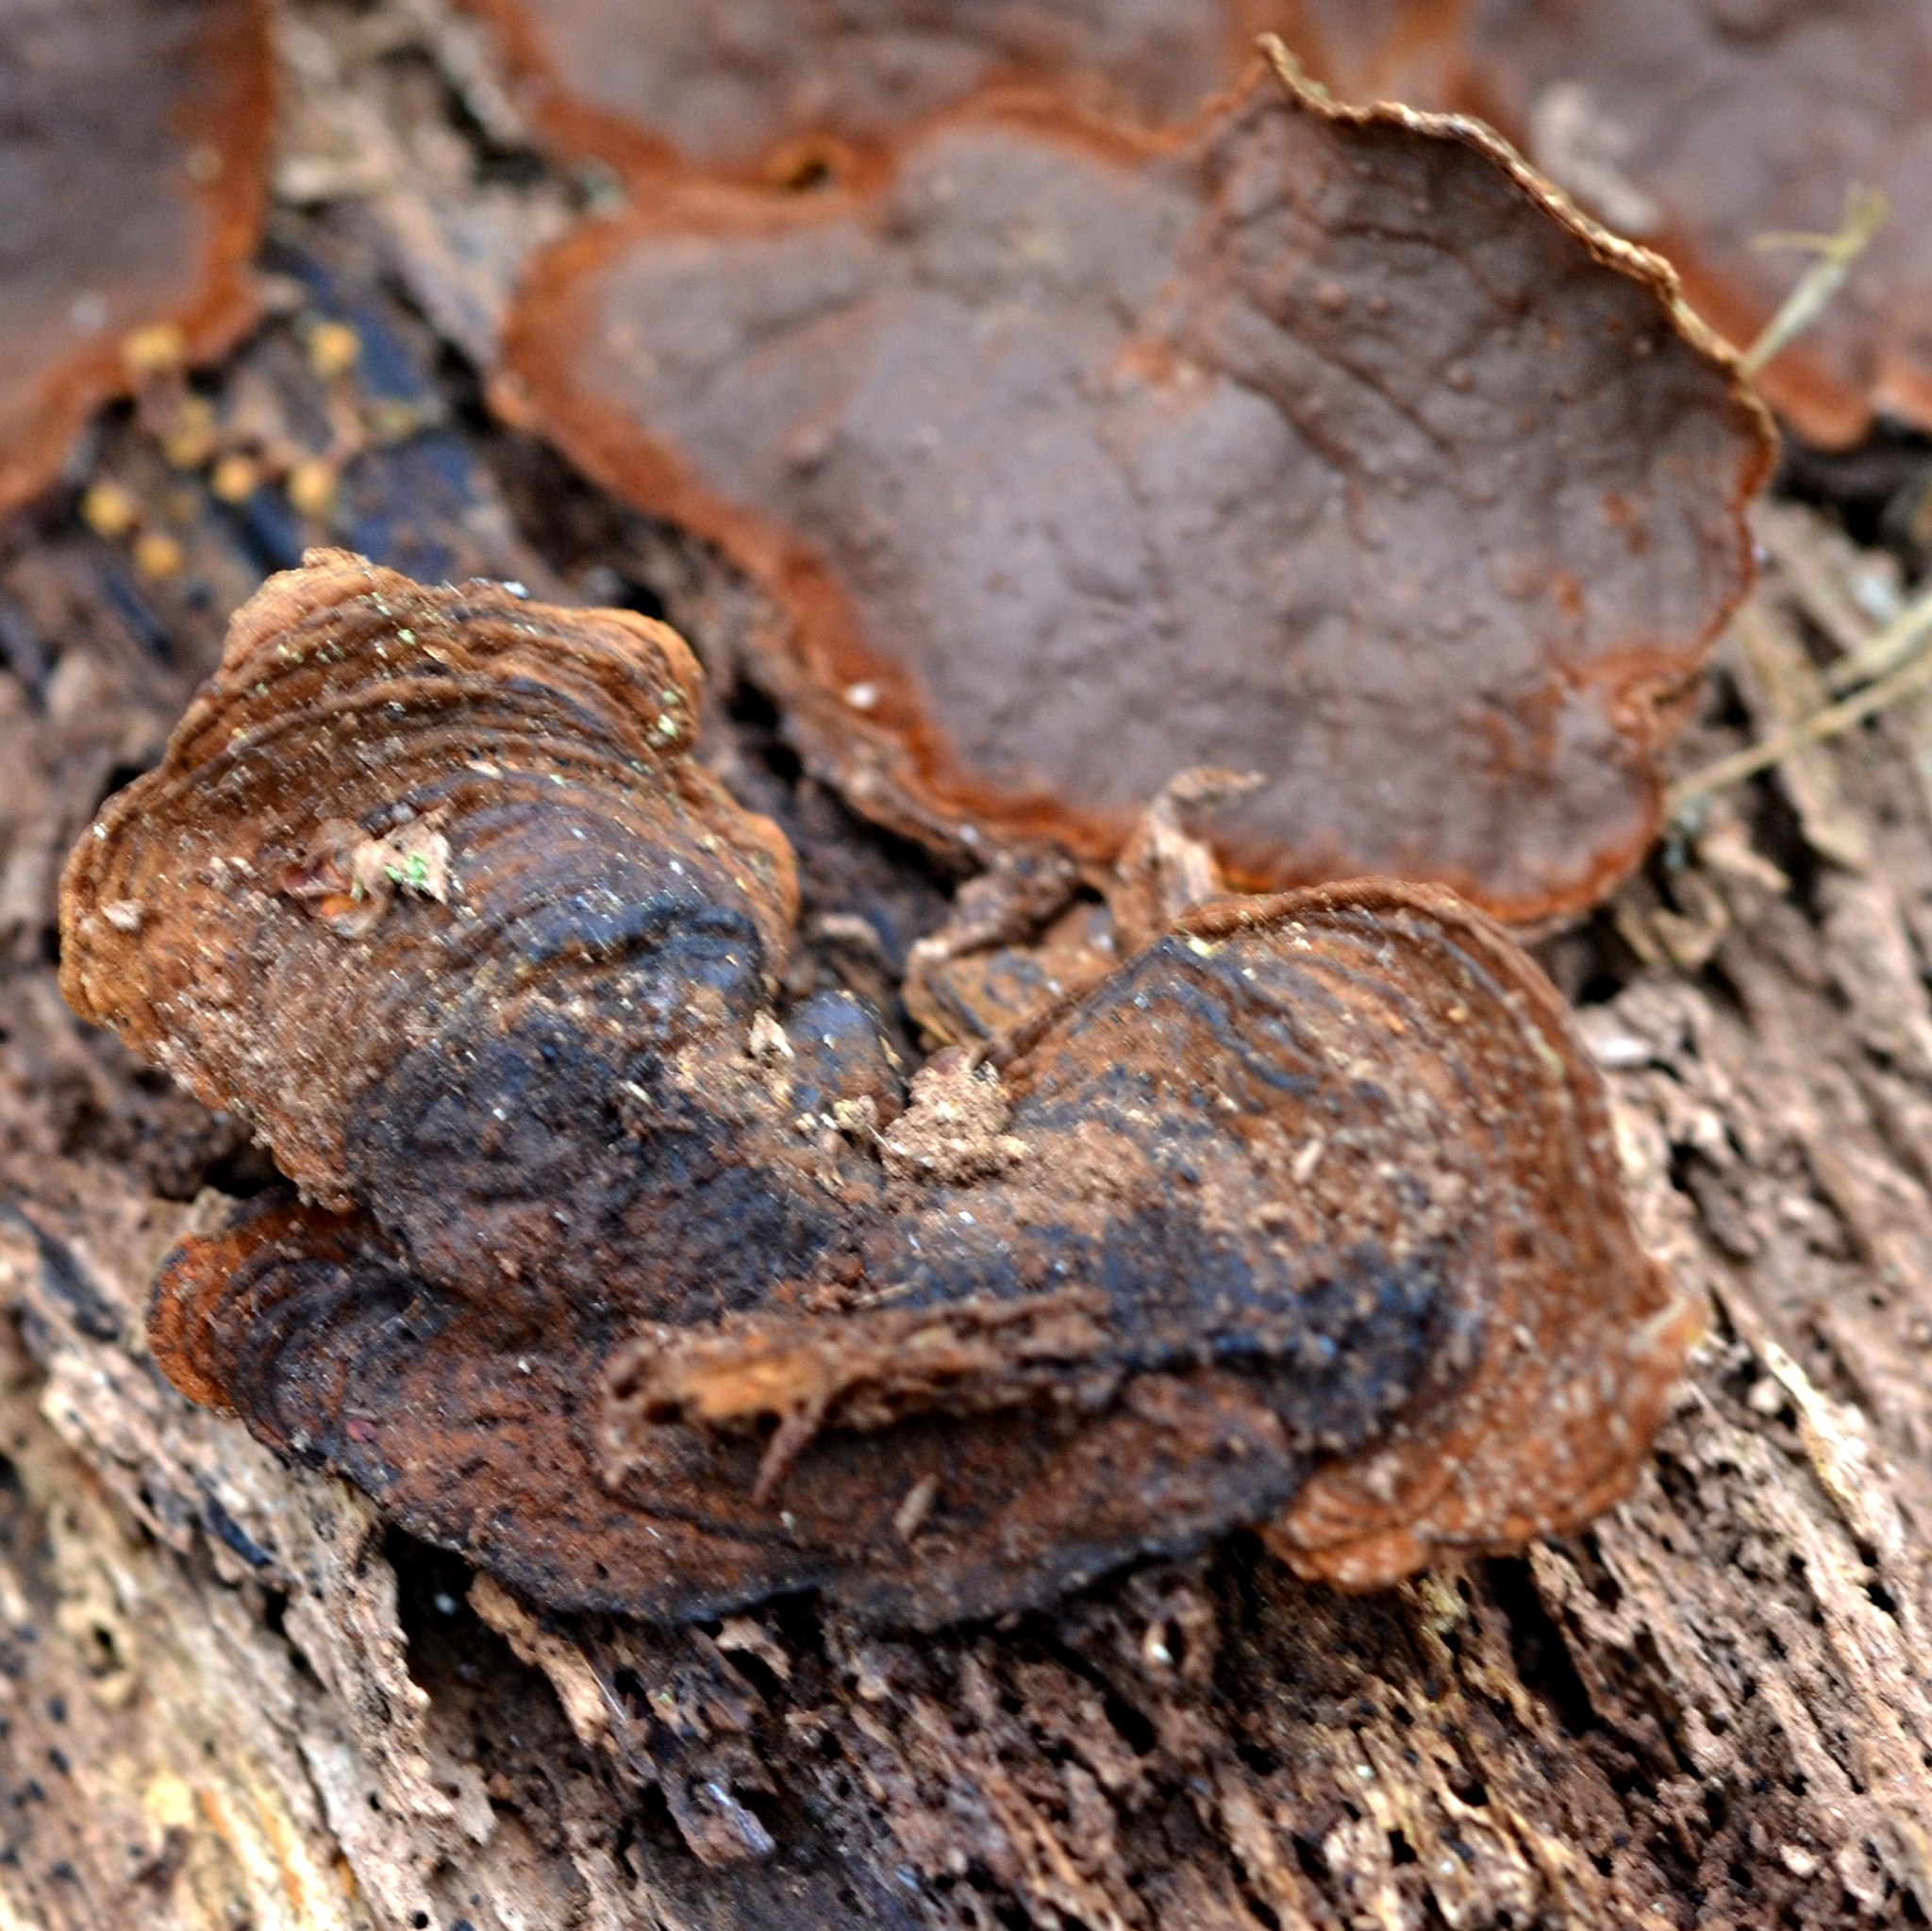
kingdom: Fungi
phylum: Basidiomycota
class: Agaricomycetes
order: Hymenochaetales
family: Hymenochaetaceae
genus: Hymenochaete
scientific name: Hymenochaete rubiginosa
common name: Oak curtain crust
